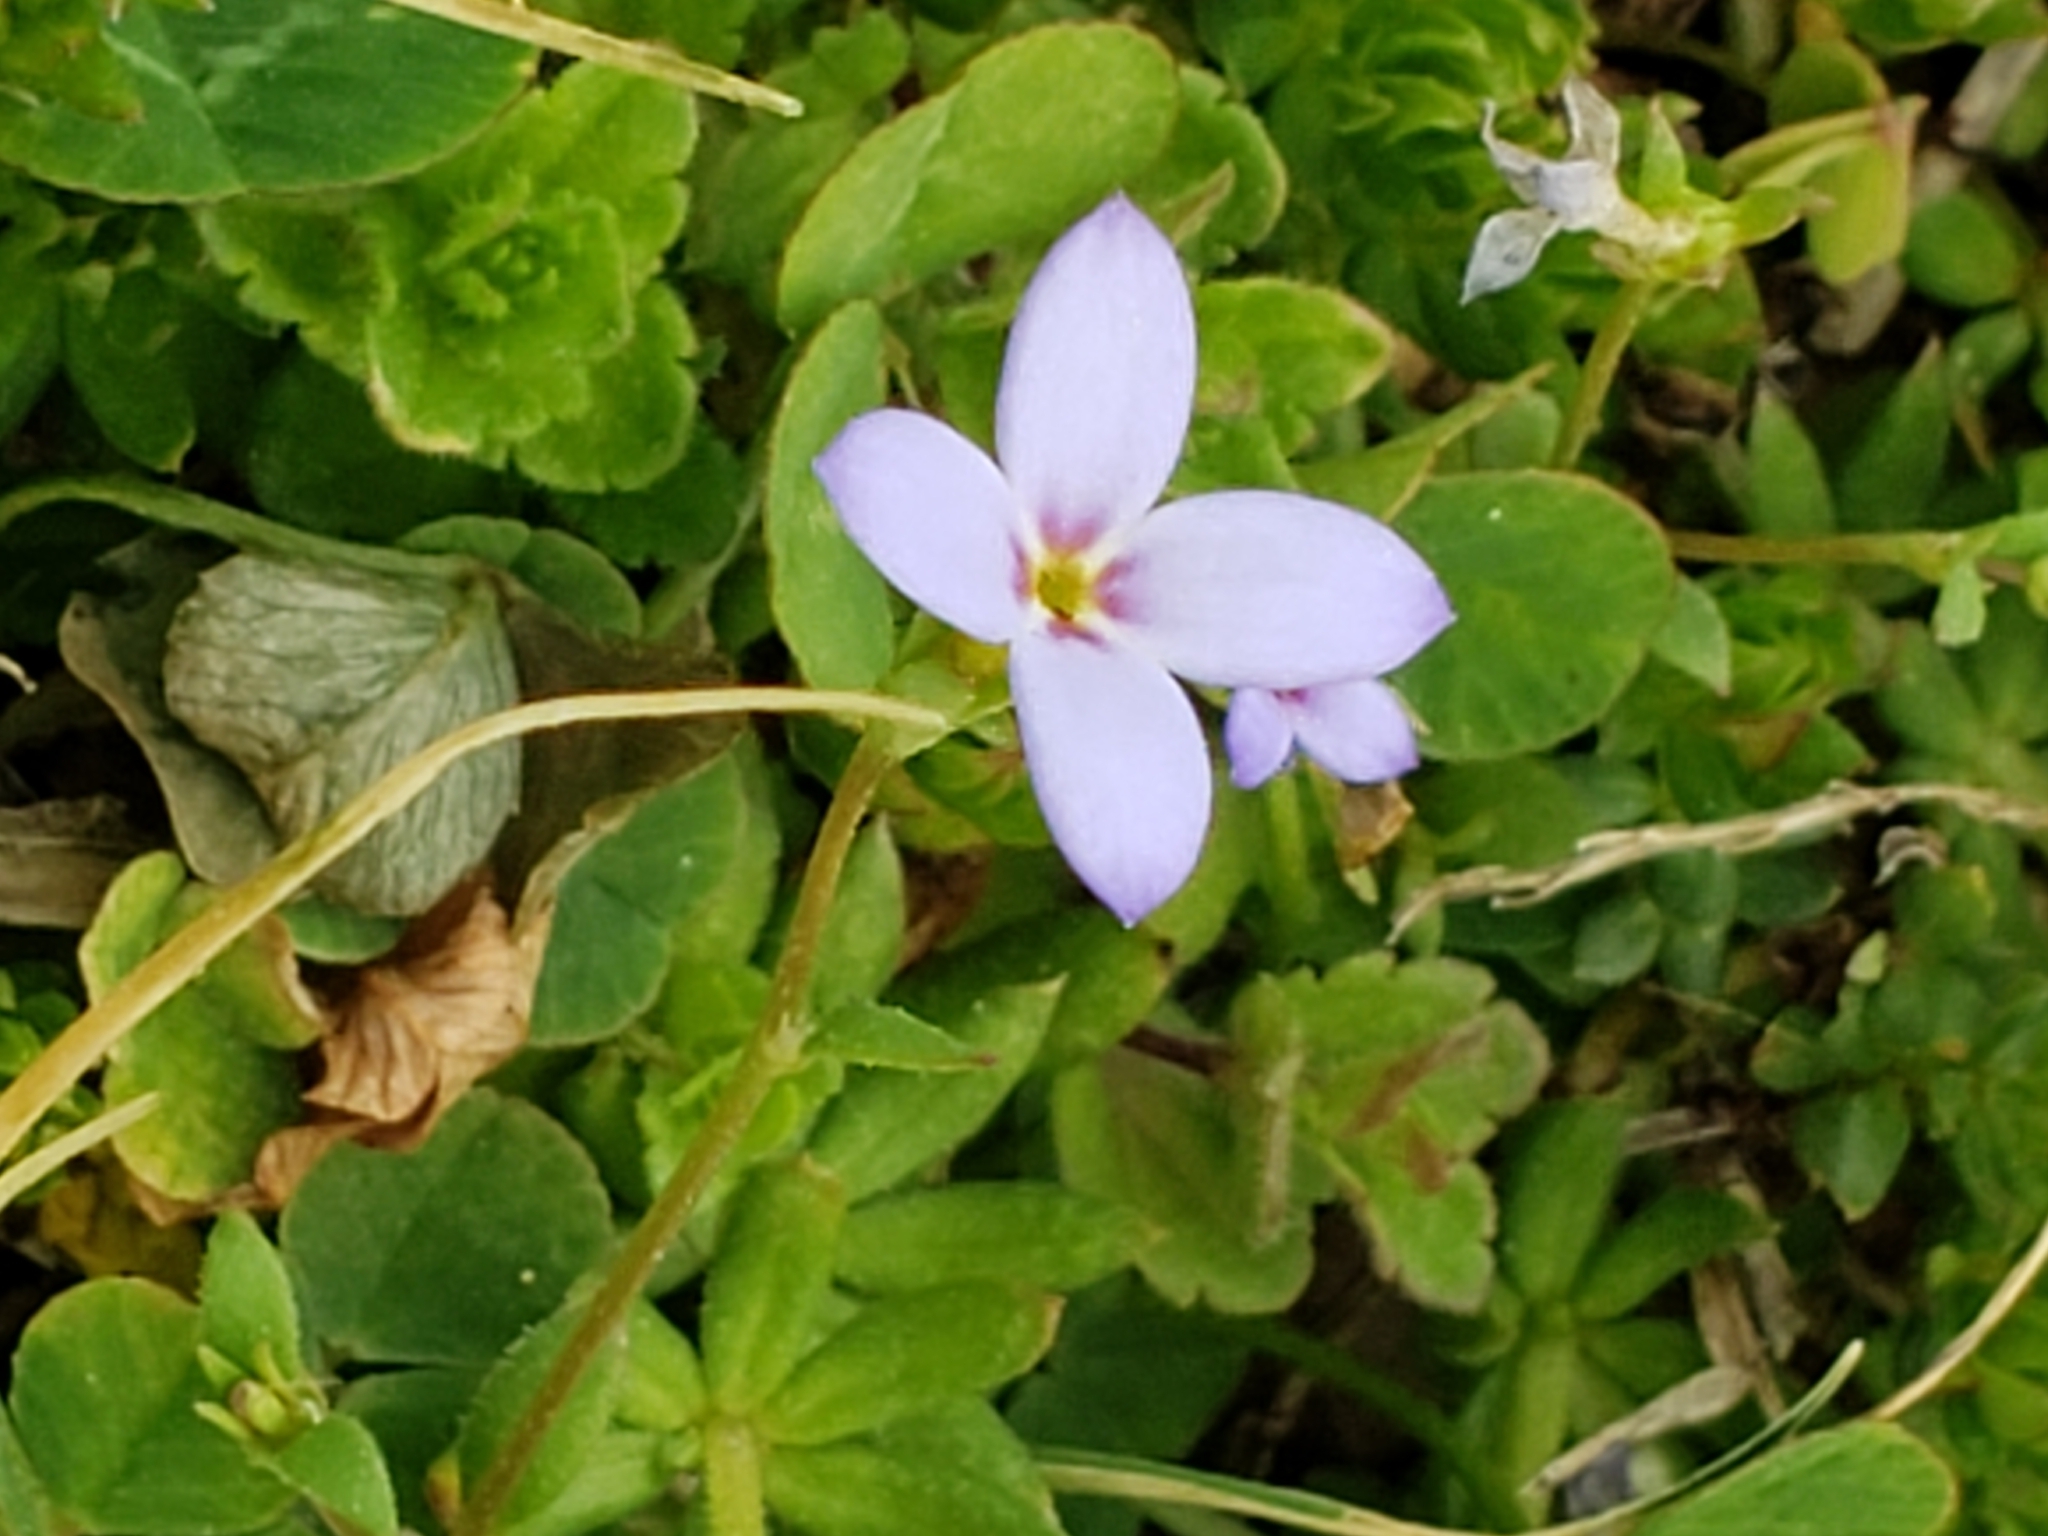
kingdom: Plantae
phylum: Tracheophyta
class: Magnoliopsida
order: Gentianales
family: Rubiaceae
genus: Houstonia
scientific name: Houstonia pusilla
